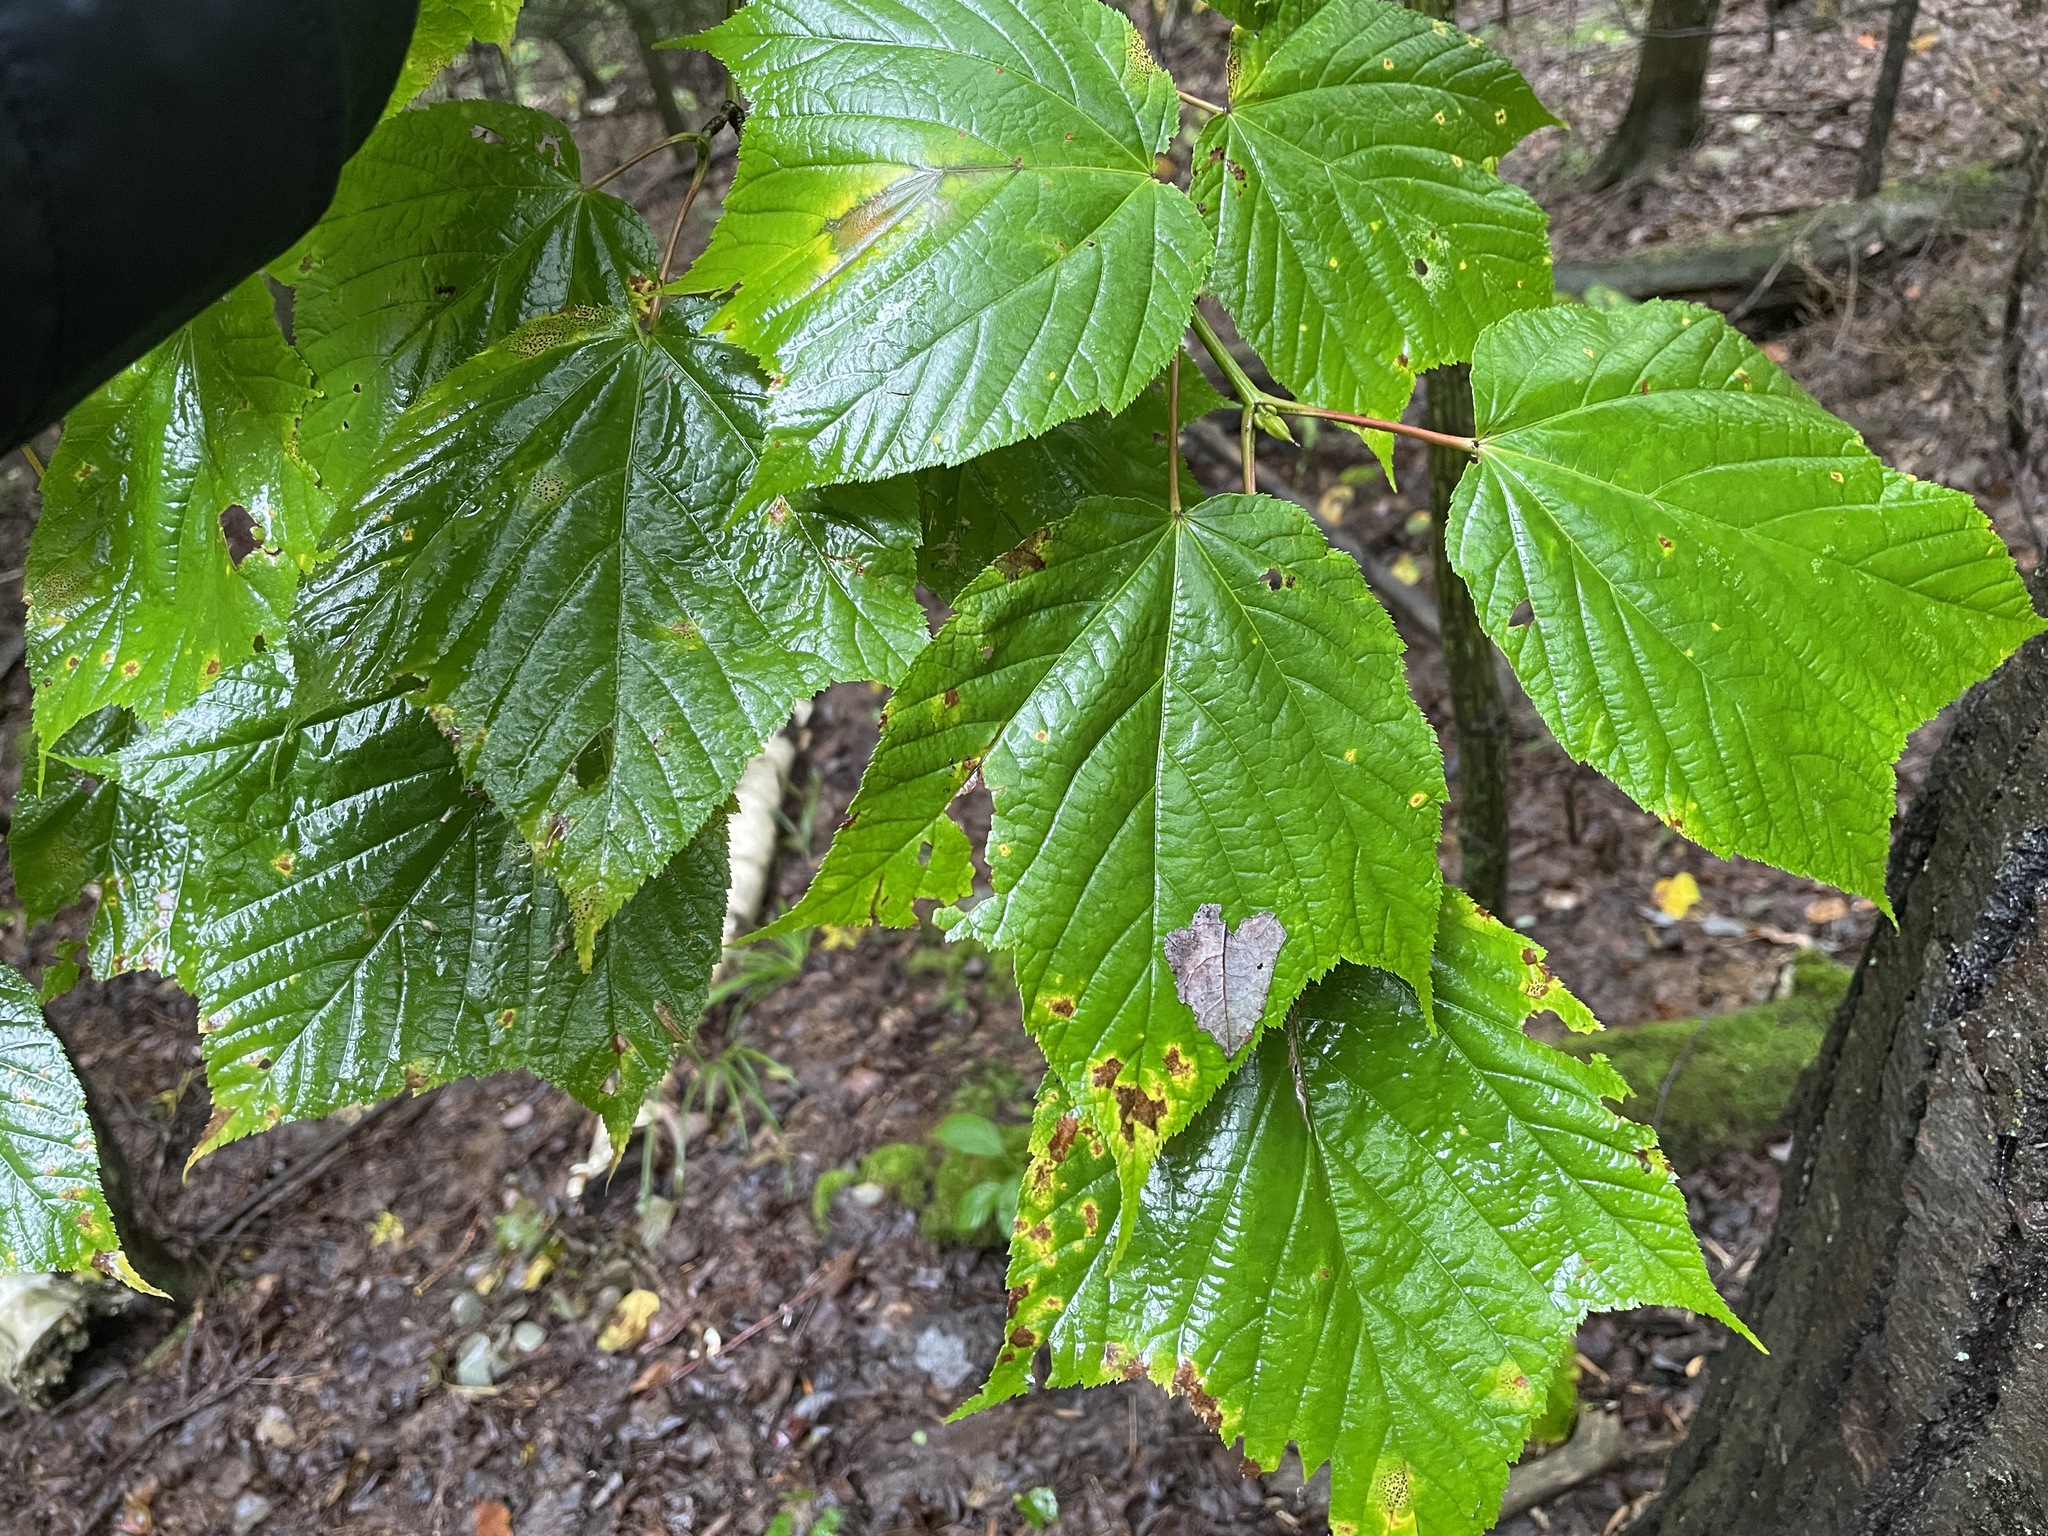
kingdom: Plantae
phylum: Tracheophyta
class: Magnoliopsida
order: Sapindales
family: Sapindaceae
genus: Acer
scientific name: Acer pensylvanicum
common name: Moosewood
